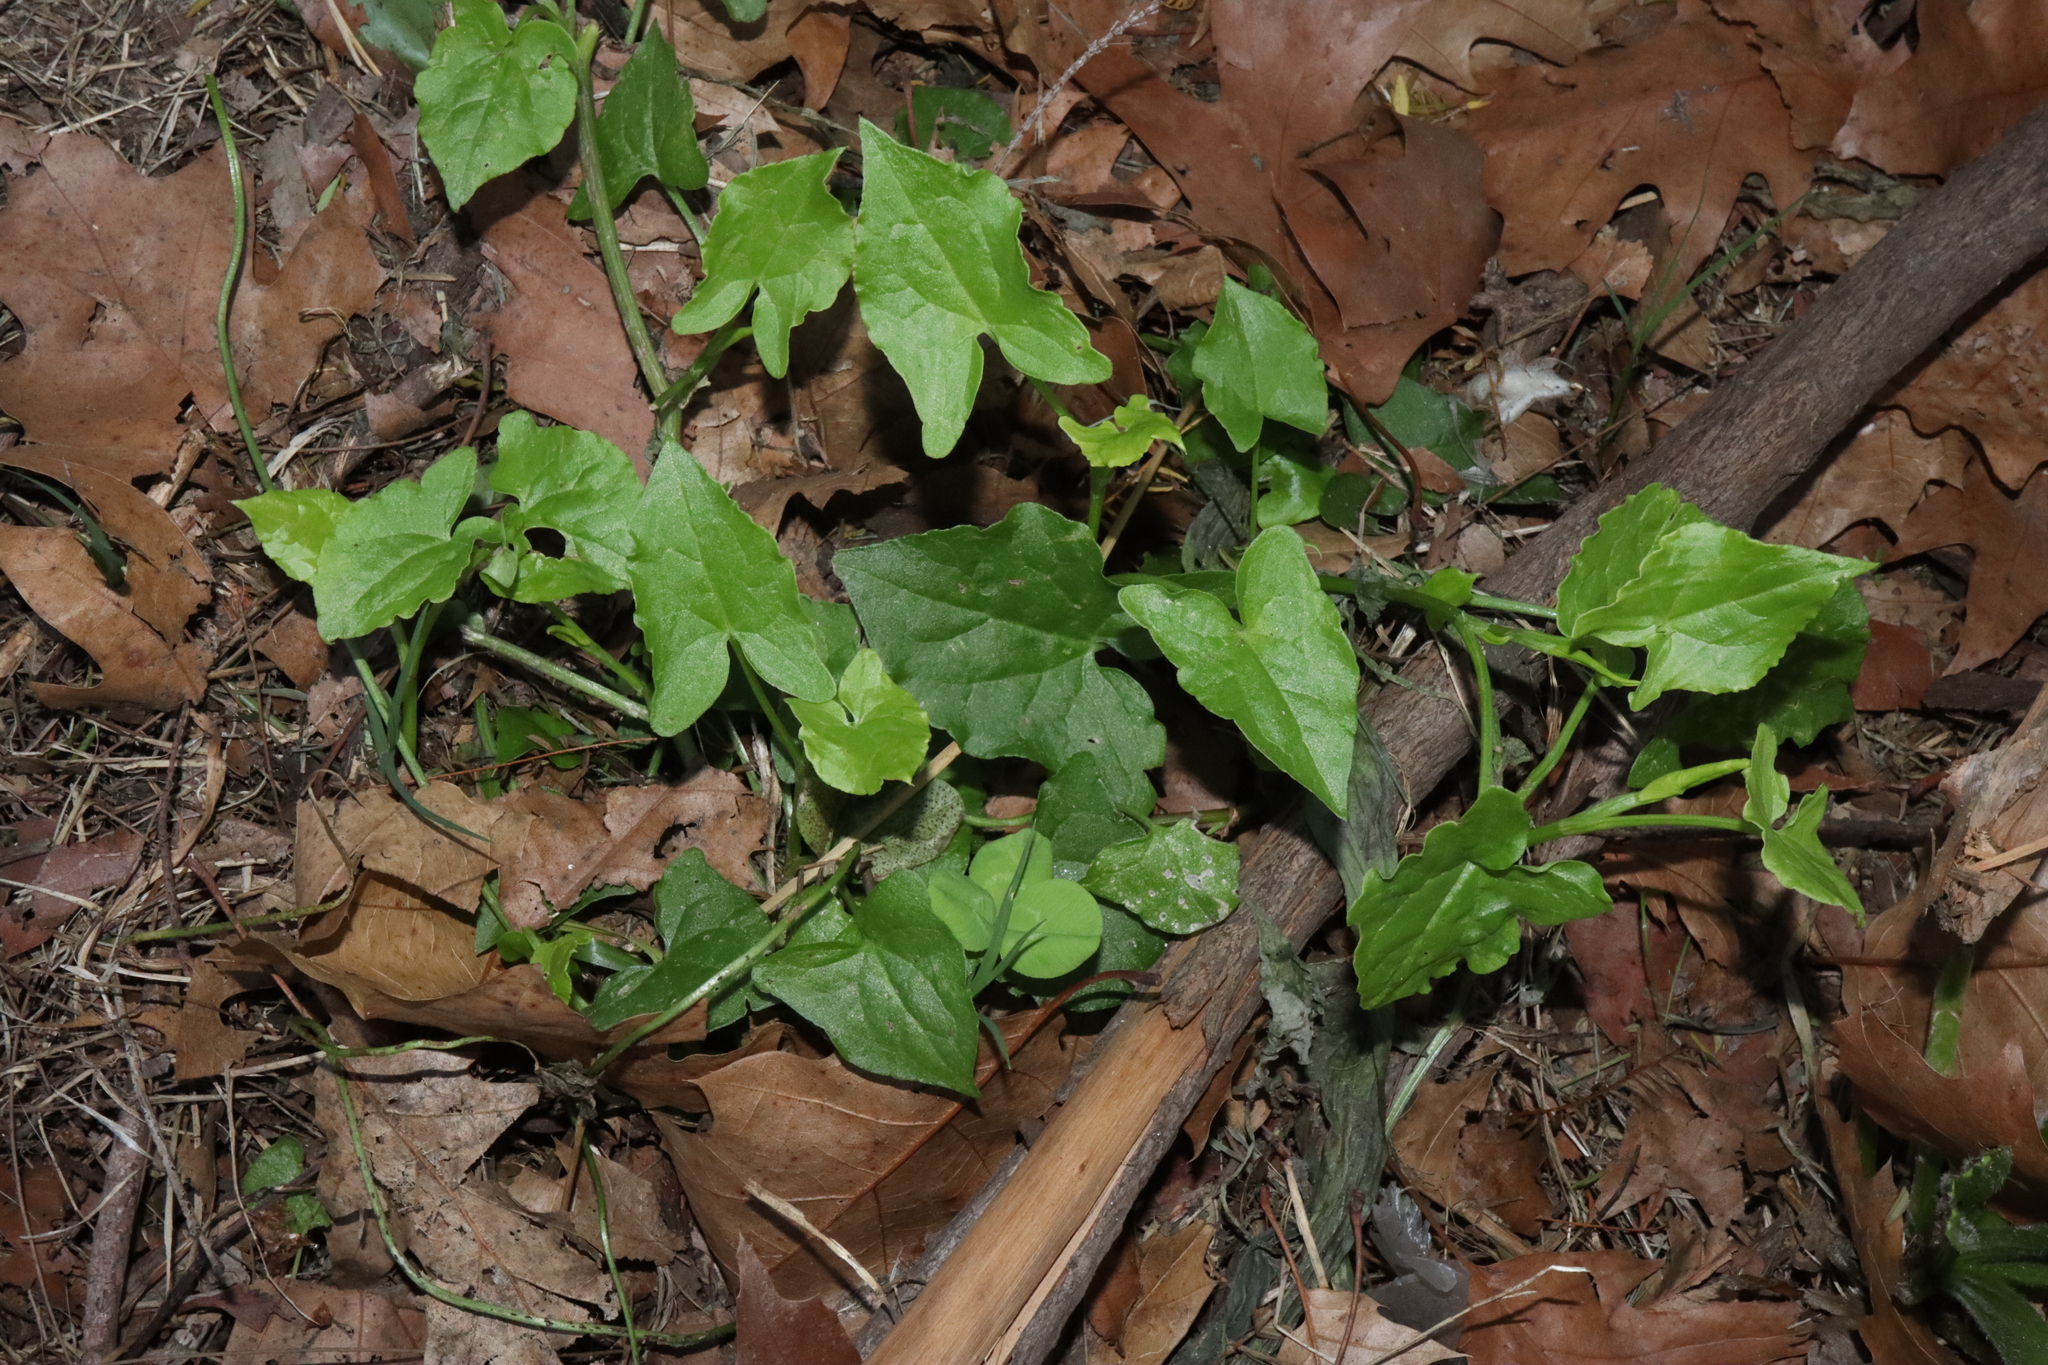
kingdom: Plantae
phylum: Tracheophyta
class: Magnoliopsida
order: Caryophyllales
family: Polygonaceae
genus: Rumex
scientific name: Rumex sagittatus
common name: Climbing dock
